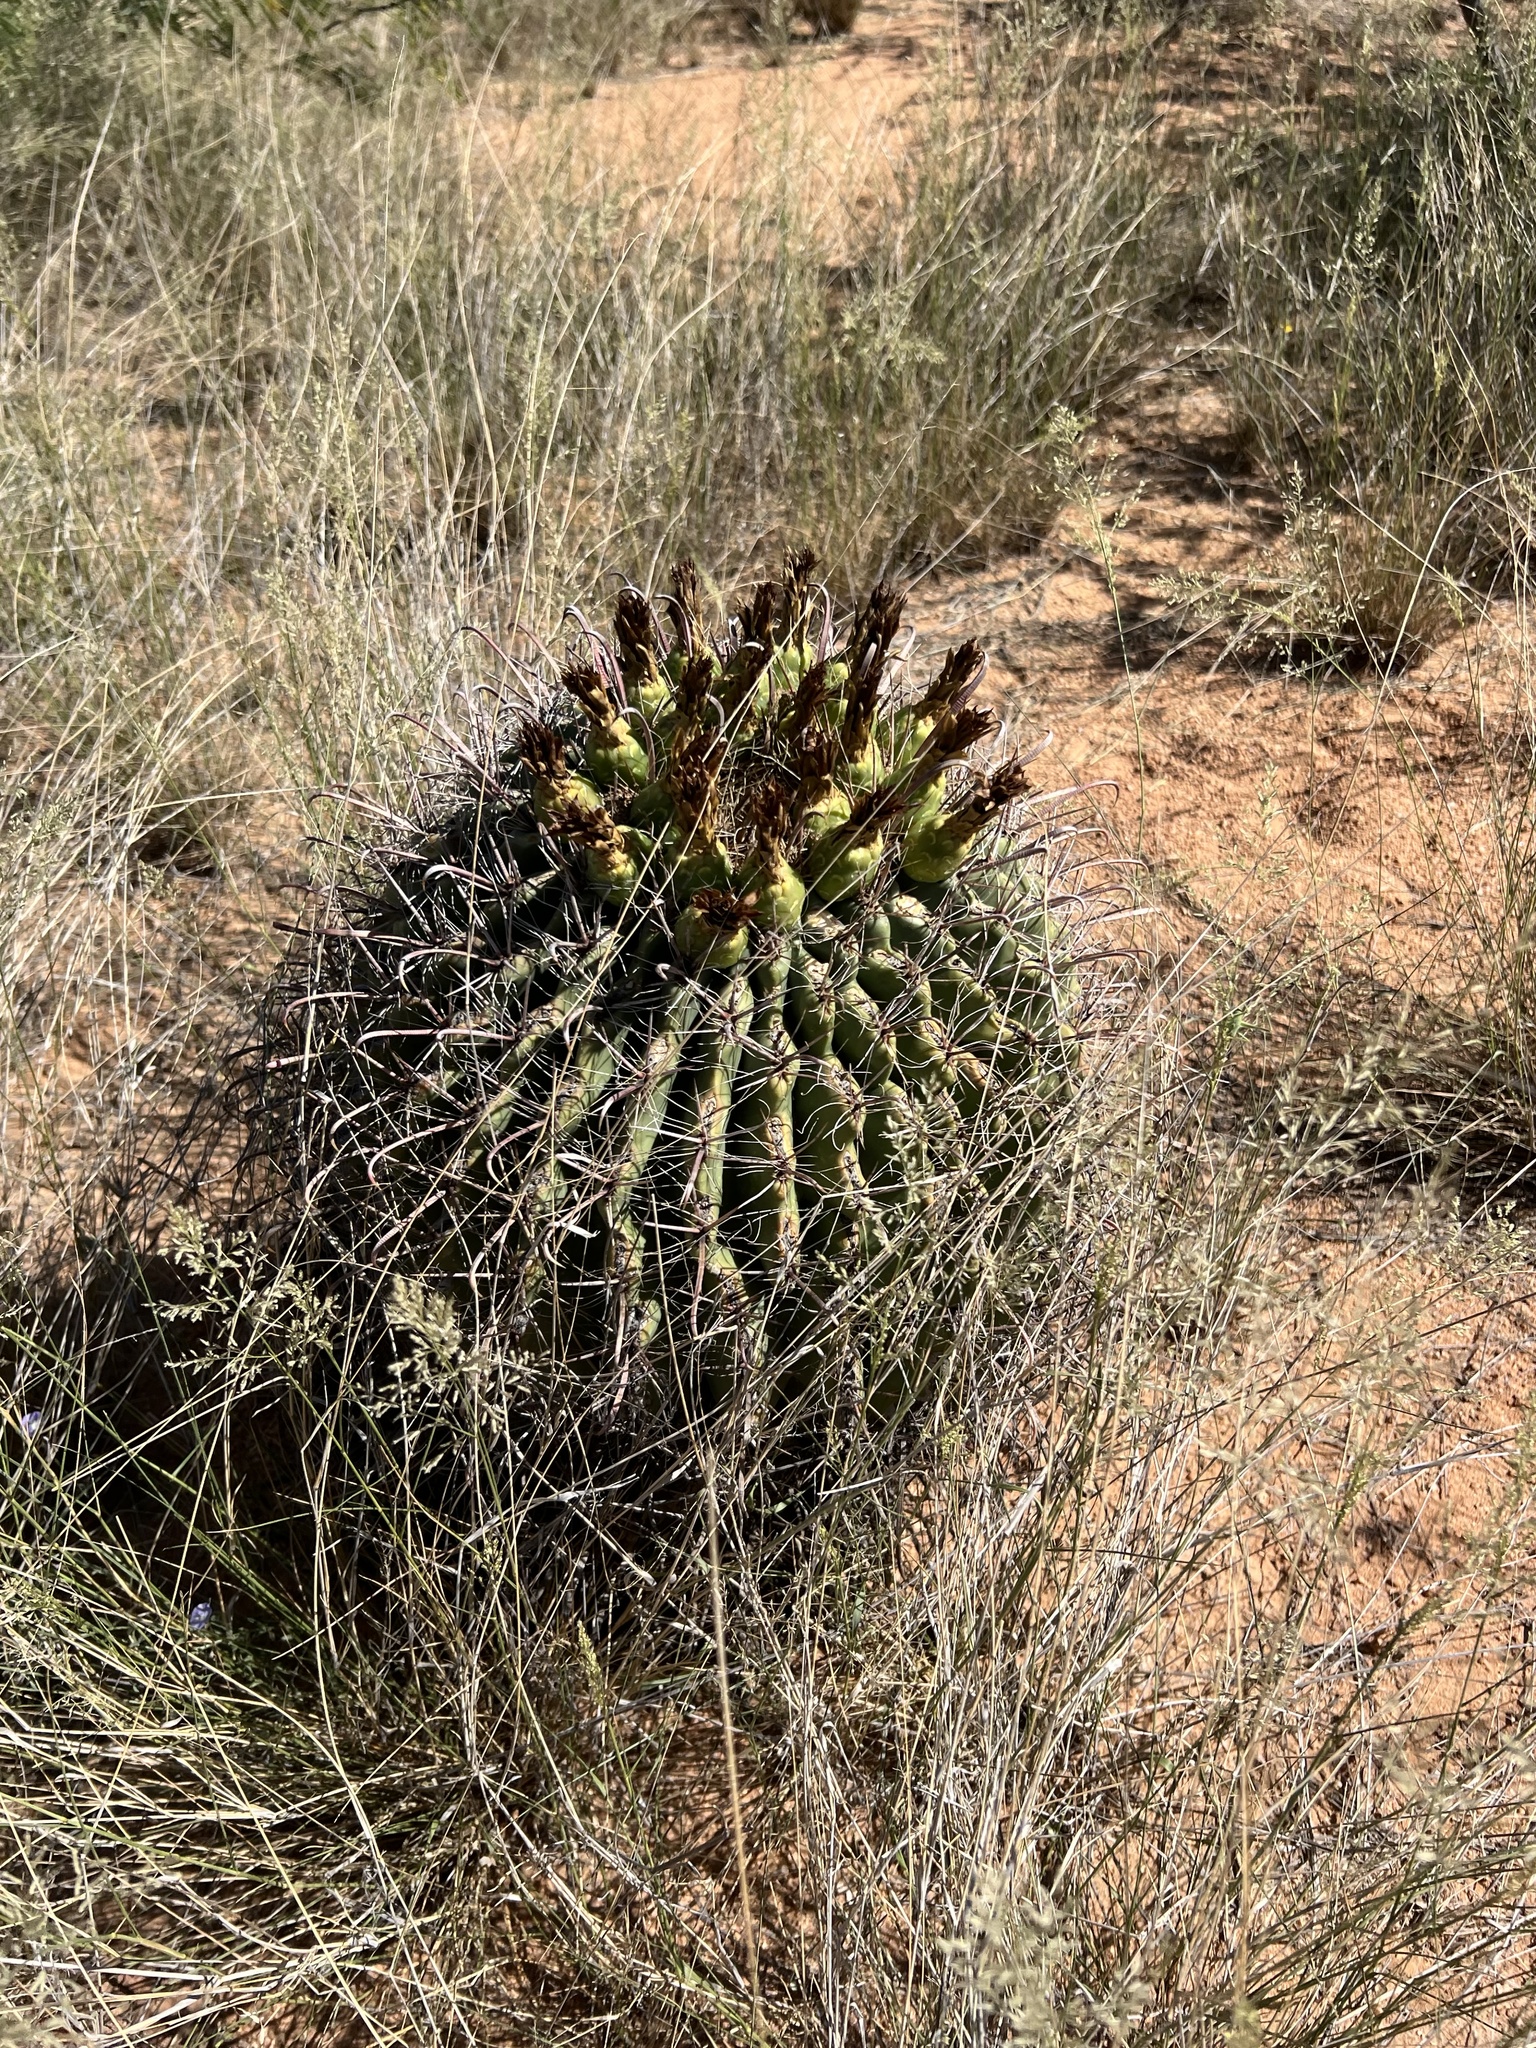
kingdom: Plantae
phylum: Tracheophyta
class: Magnoliopsida
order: Caryophyllales
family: Cactaceae
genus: Ferocactus
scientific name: Ferocactus wislizeni
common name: Candy barrel cactus
